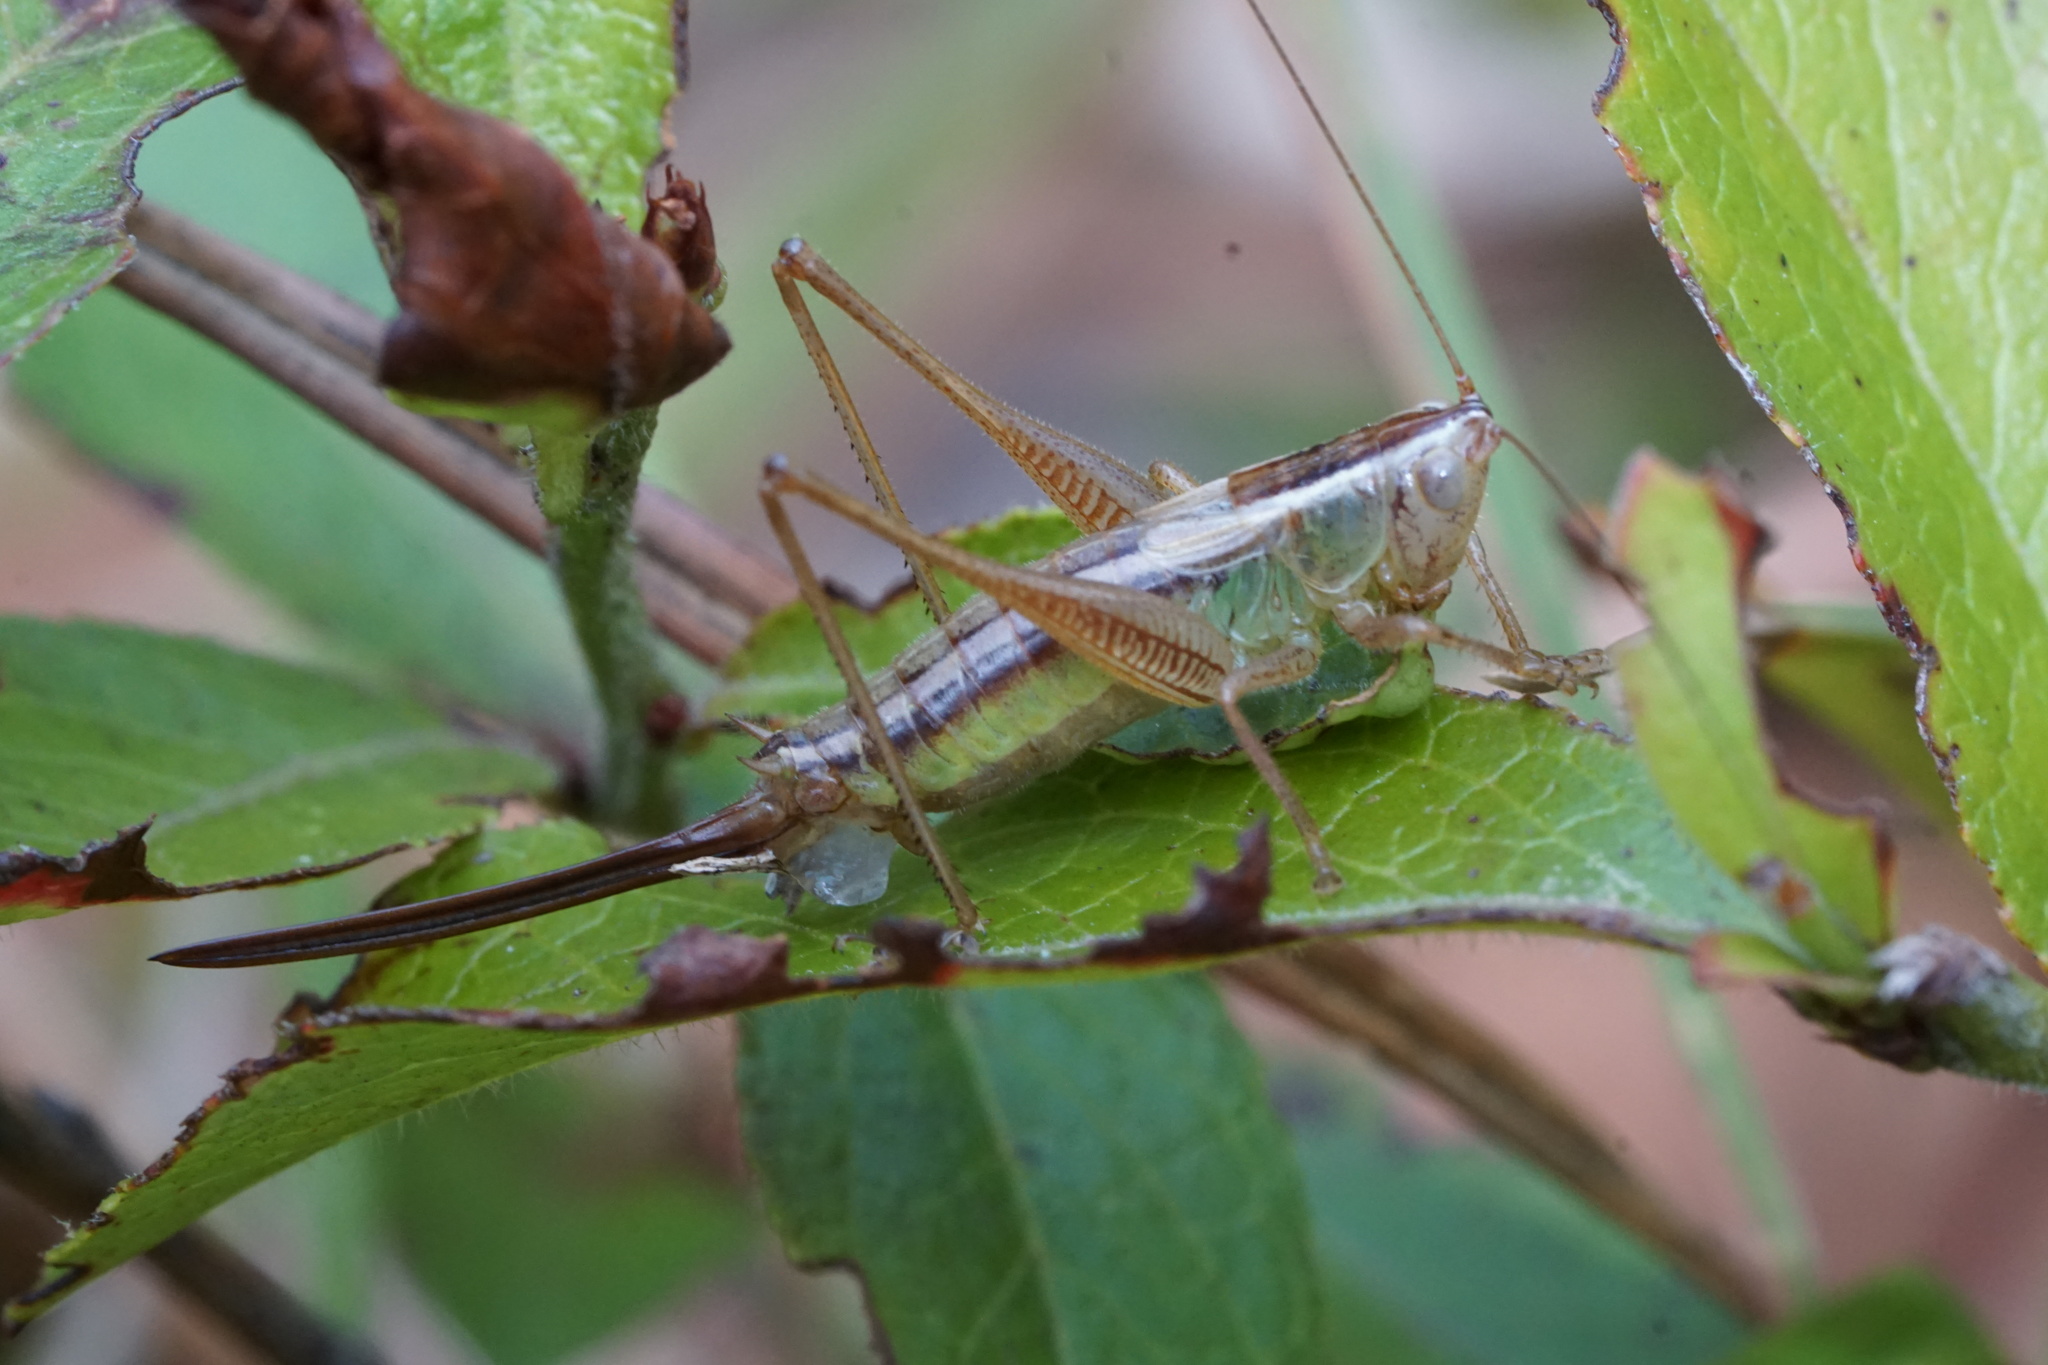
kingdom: Animalia
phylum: Arthropoda
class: Insecta
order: Orthoptera
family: Tettigoniidae
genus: Conocephalus
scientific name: Conocephalus saltans
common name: Prairie meadow katydid
